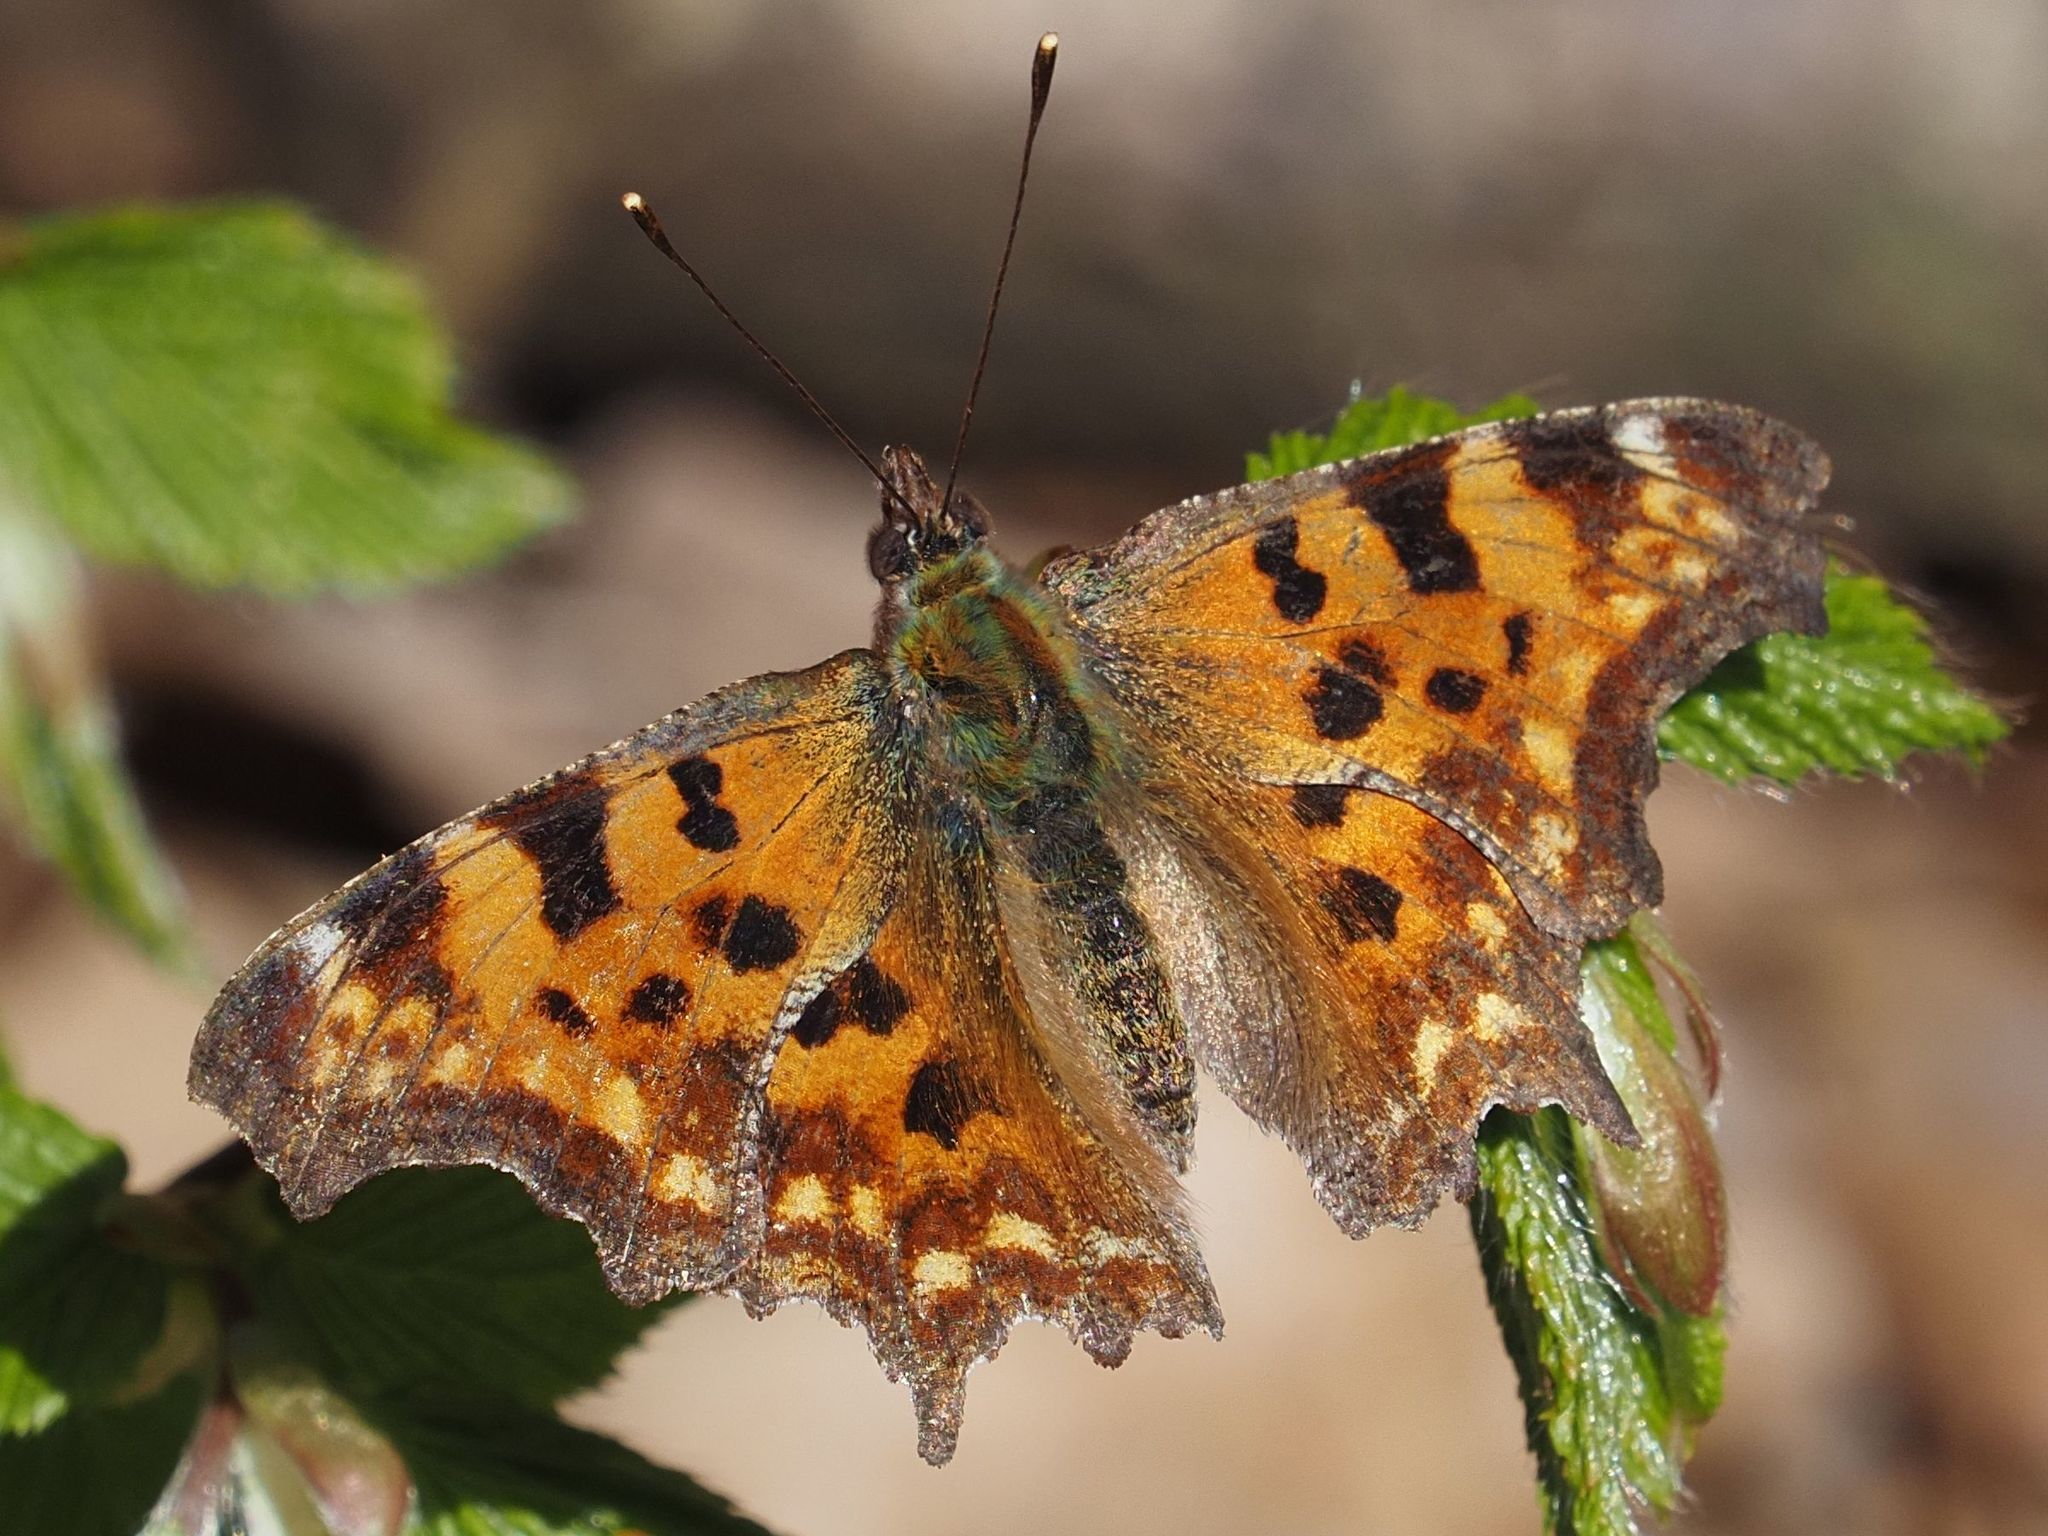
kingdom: Animalia
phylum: Arthropoda
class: Insecta
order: Lepidoptera
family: Nymphalidae
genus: Polygonia
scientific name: Polygonia c-album
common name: Comma
